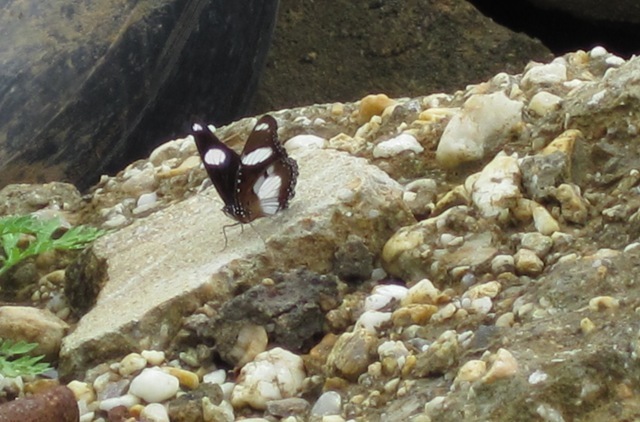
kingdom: Animalia
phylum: Arthropoda
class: Insecta
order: Lepidoptera
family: Nymphalidae
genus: Hypolimnas
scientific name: Hypolimnas misippus
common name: False plain tiger
